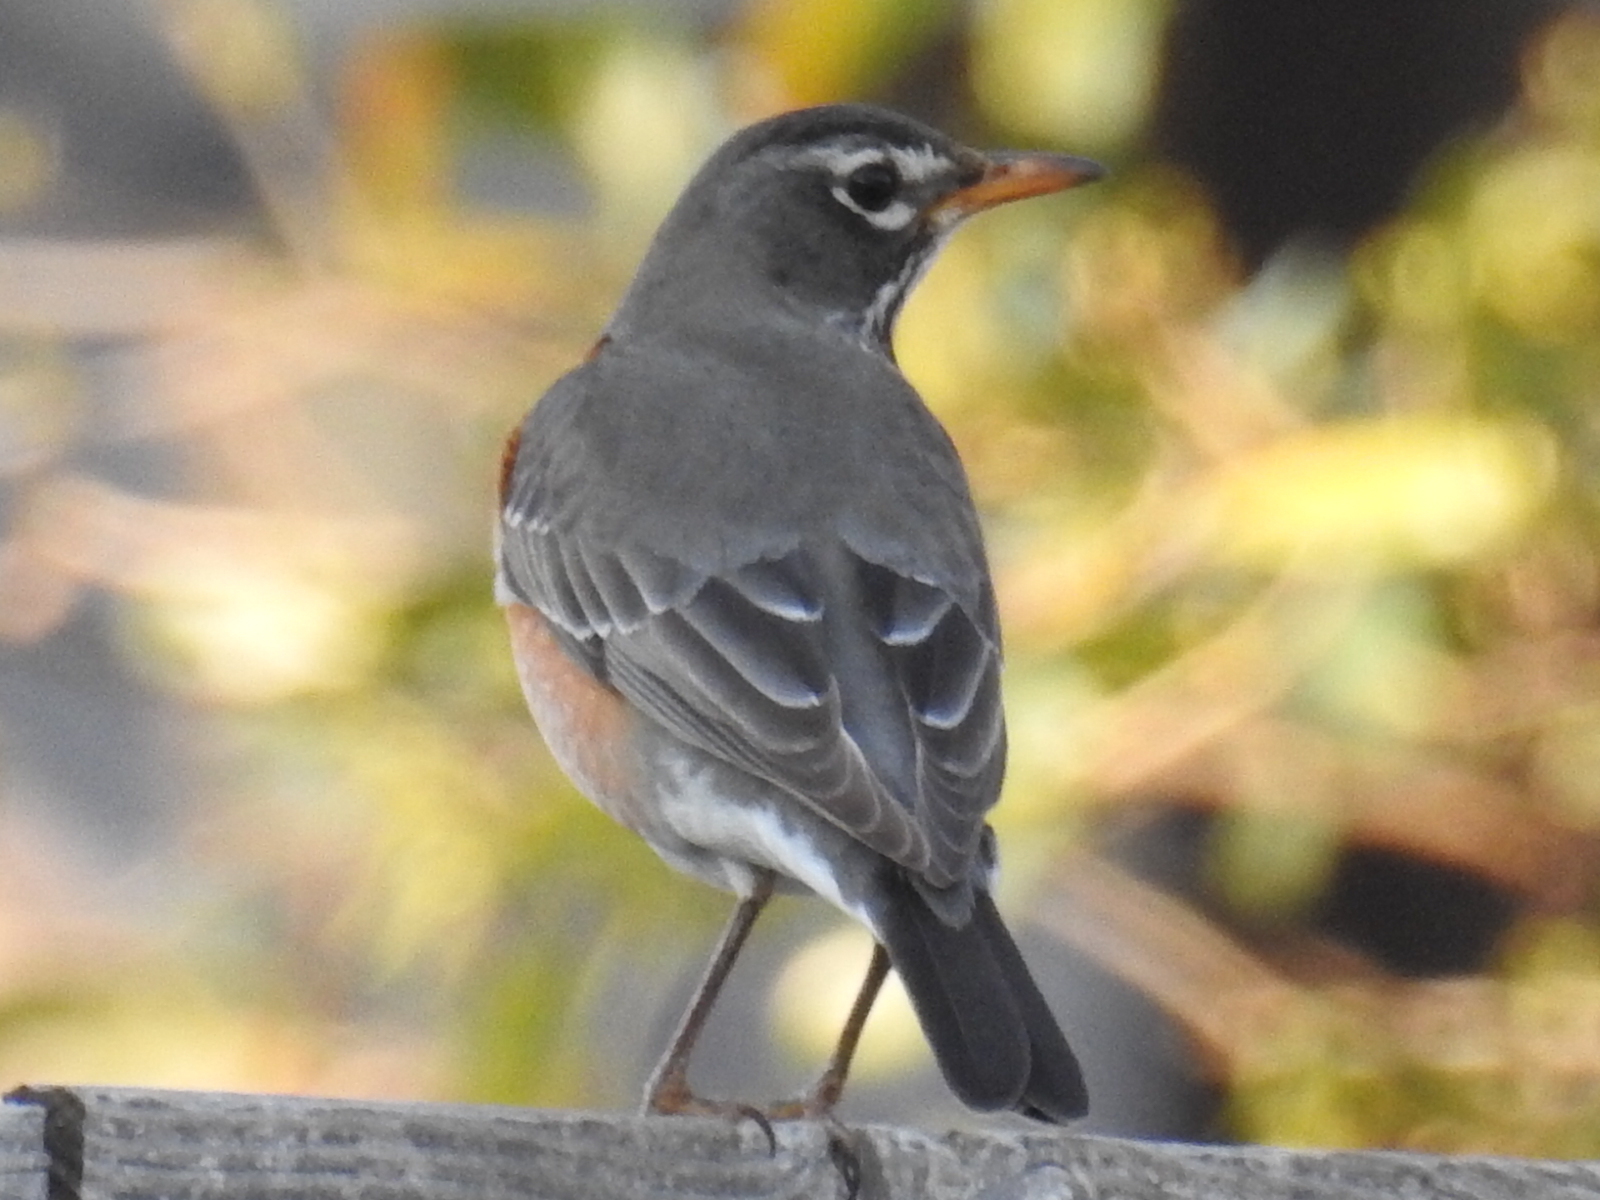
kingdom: Animalia
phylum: Chordata
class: Aves
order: Passeriformes
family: Turdidae
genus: Turdus
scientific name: Turdus migratorius
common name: American robin
